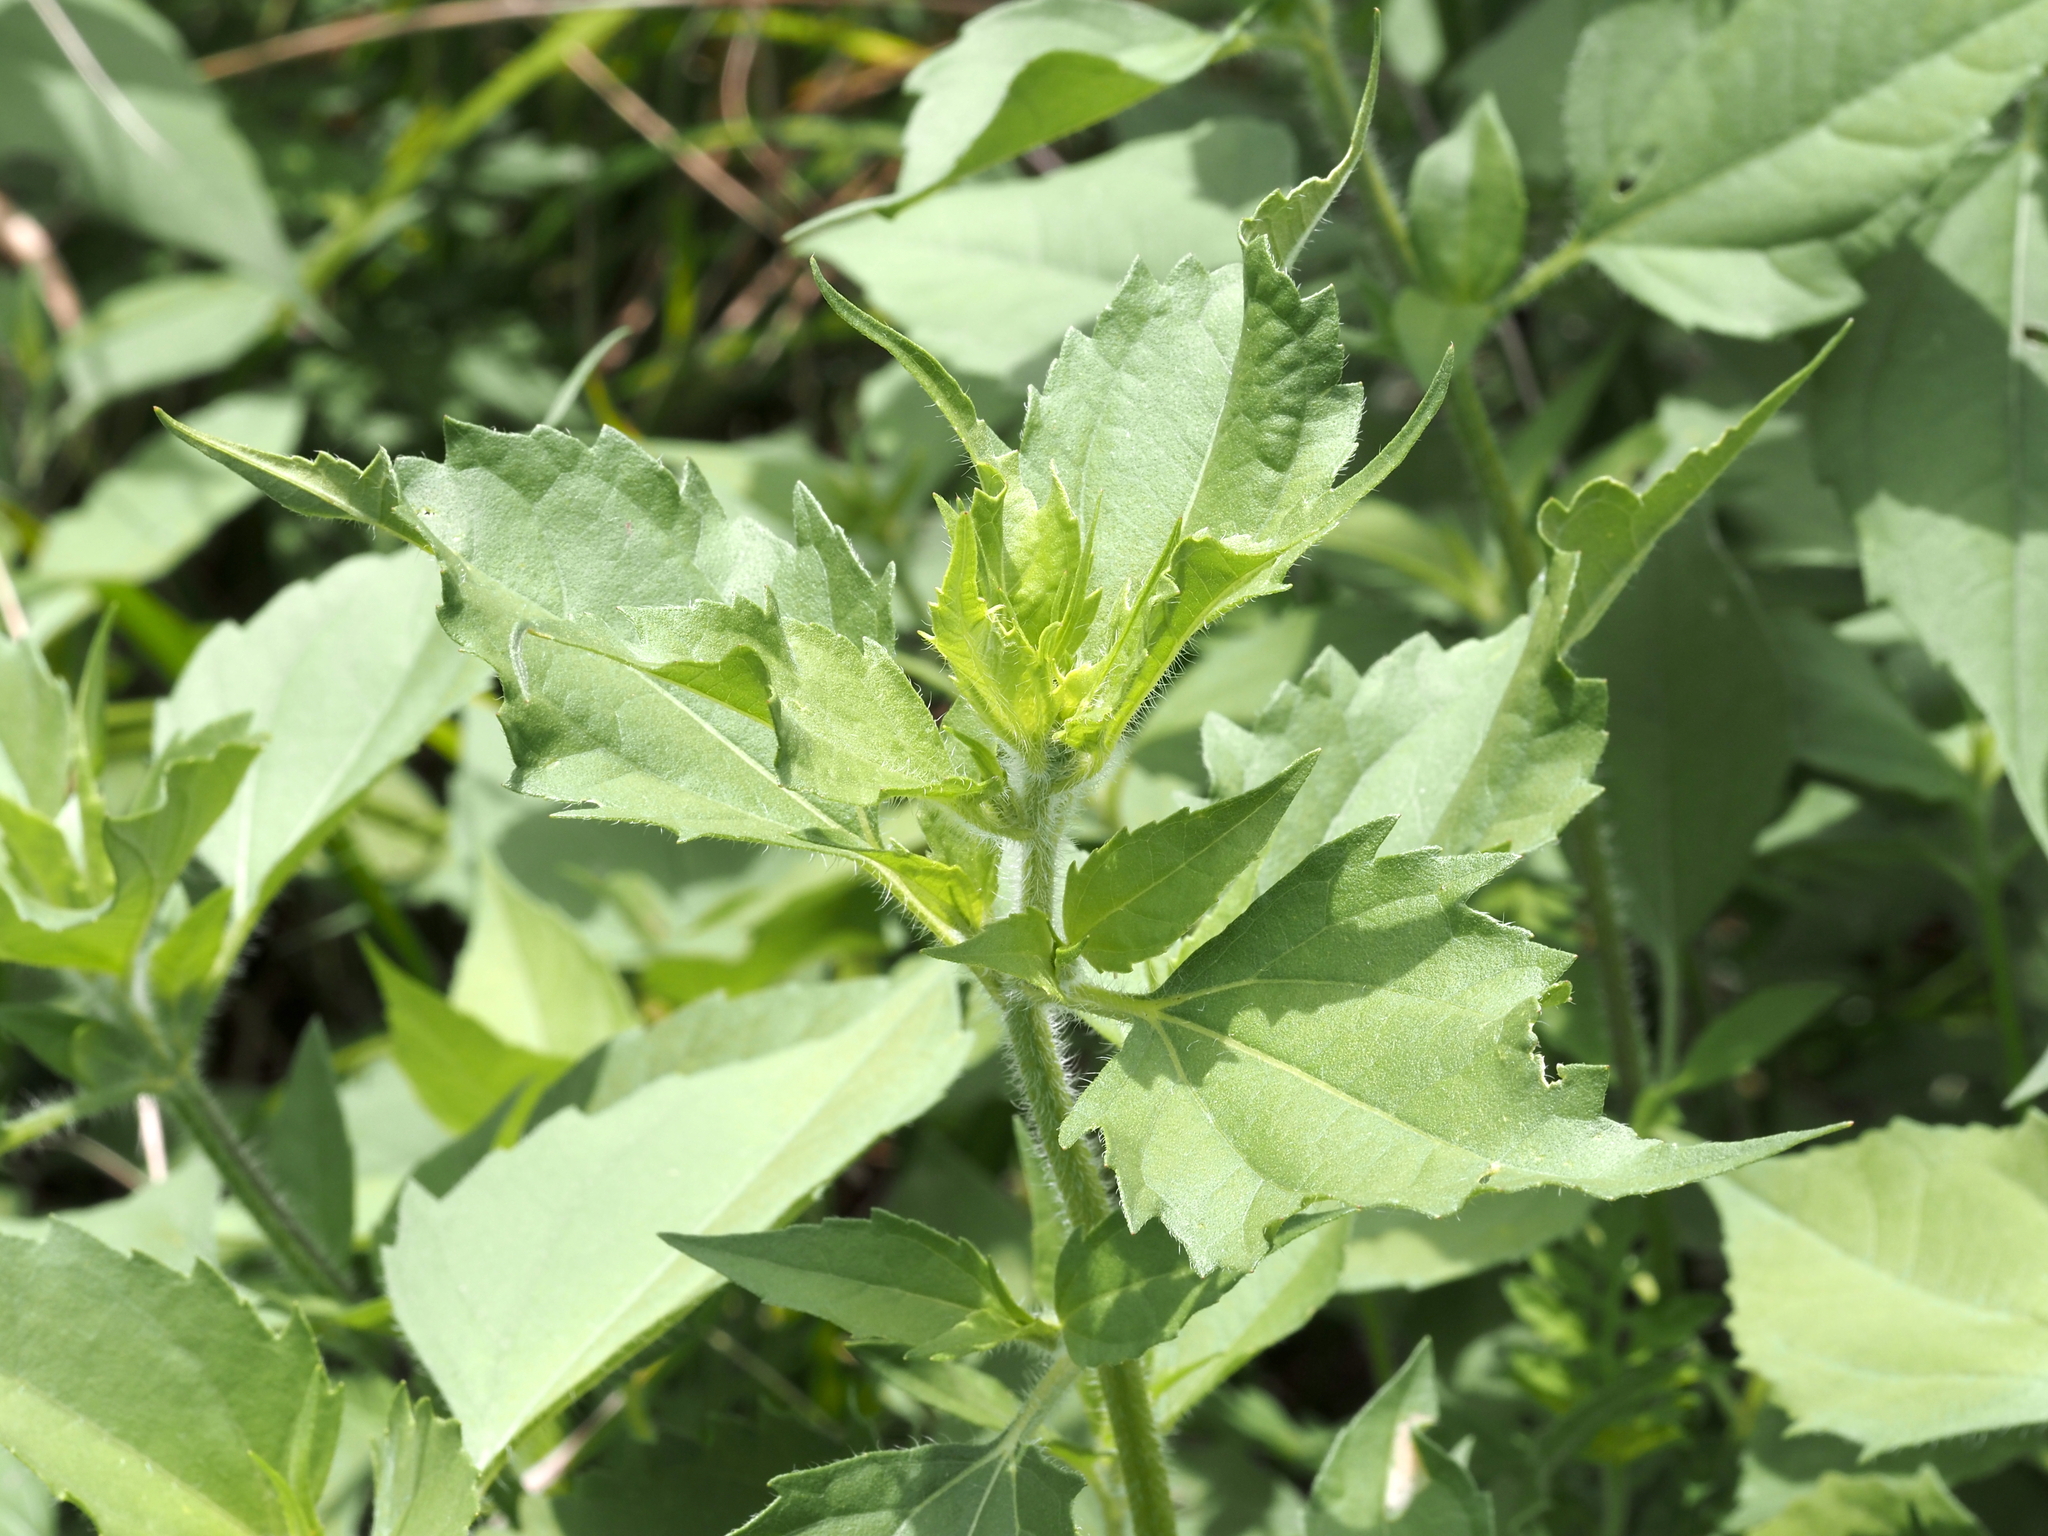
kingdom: Plantae
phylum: Tracheophyta
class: Magnoliopsida
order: Asterales
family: Asteraceae
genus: Iva
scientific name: Iva annua
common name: Marsh-elder
